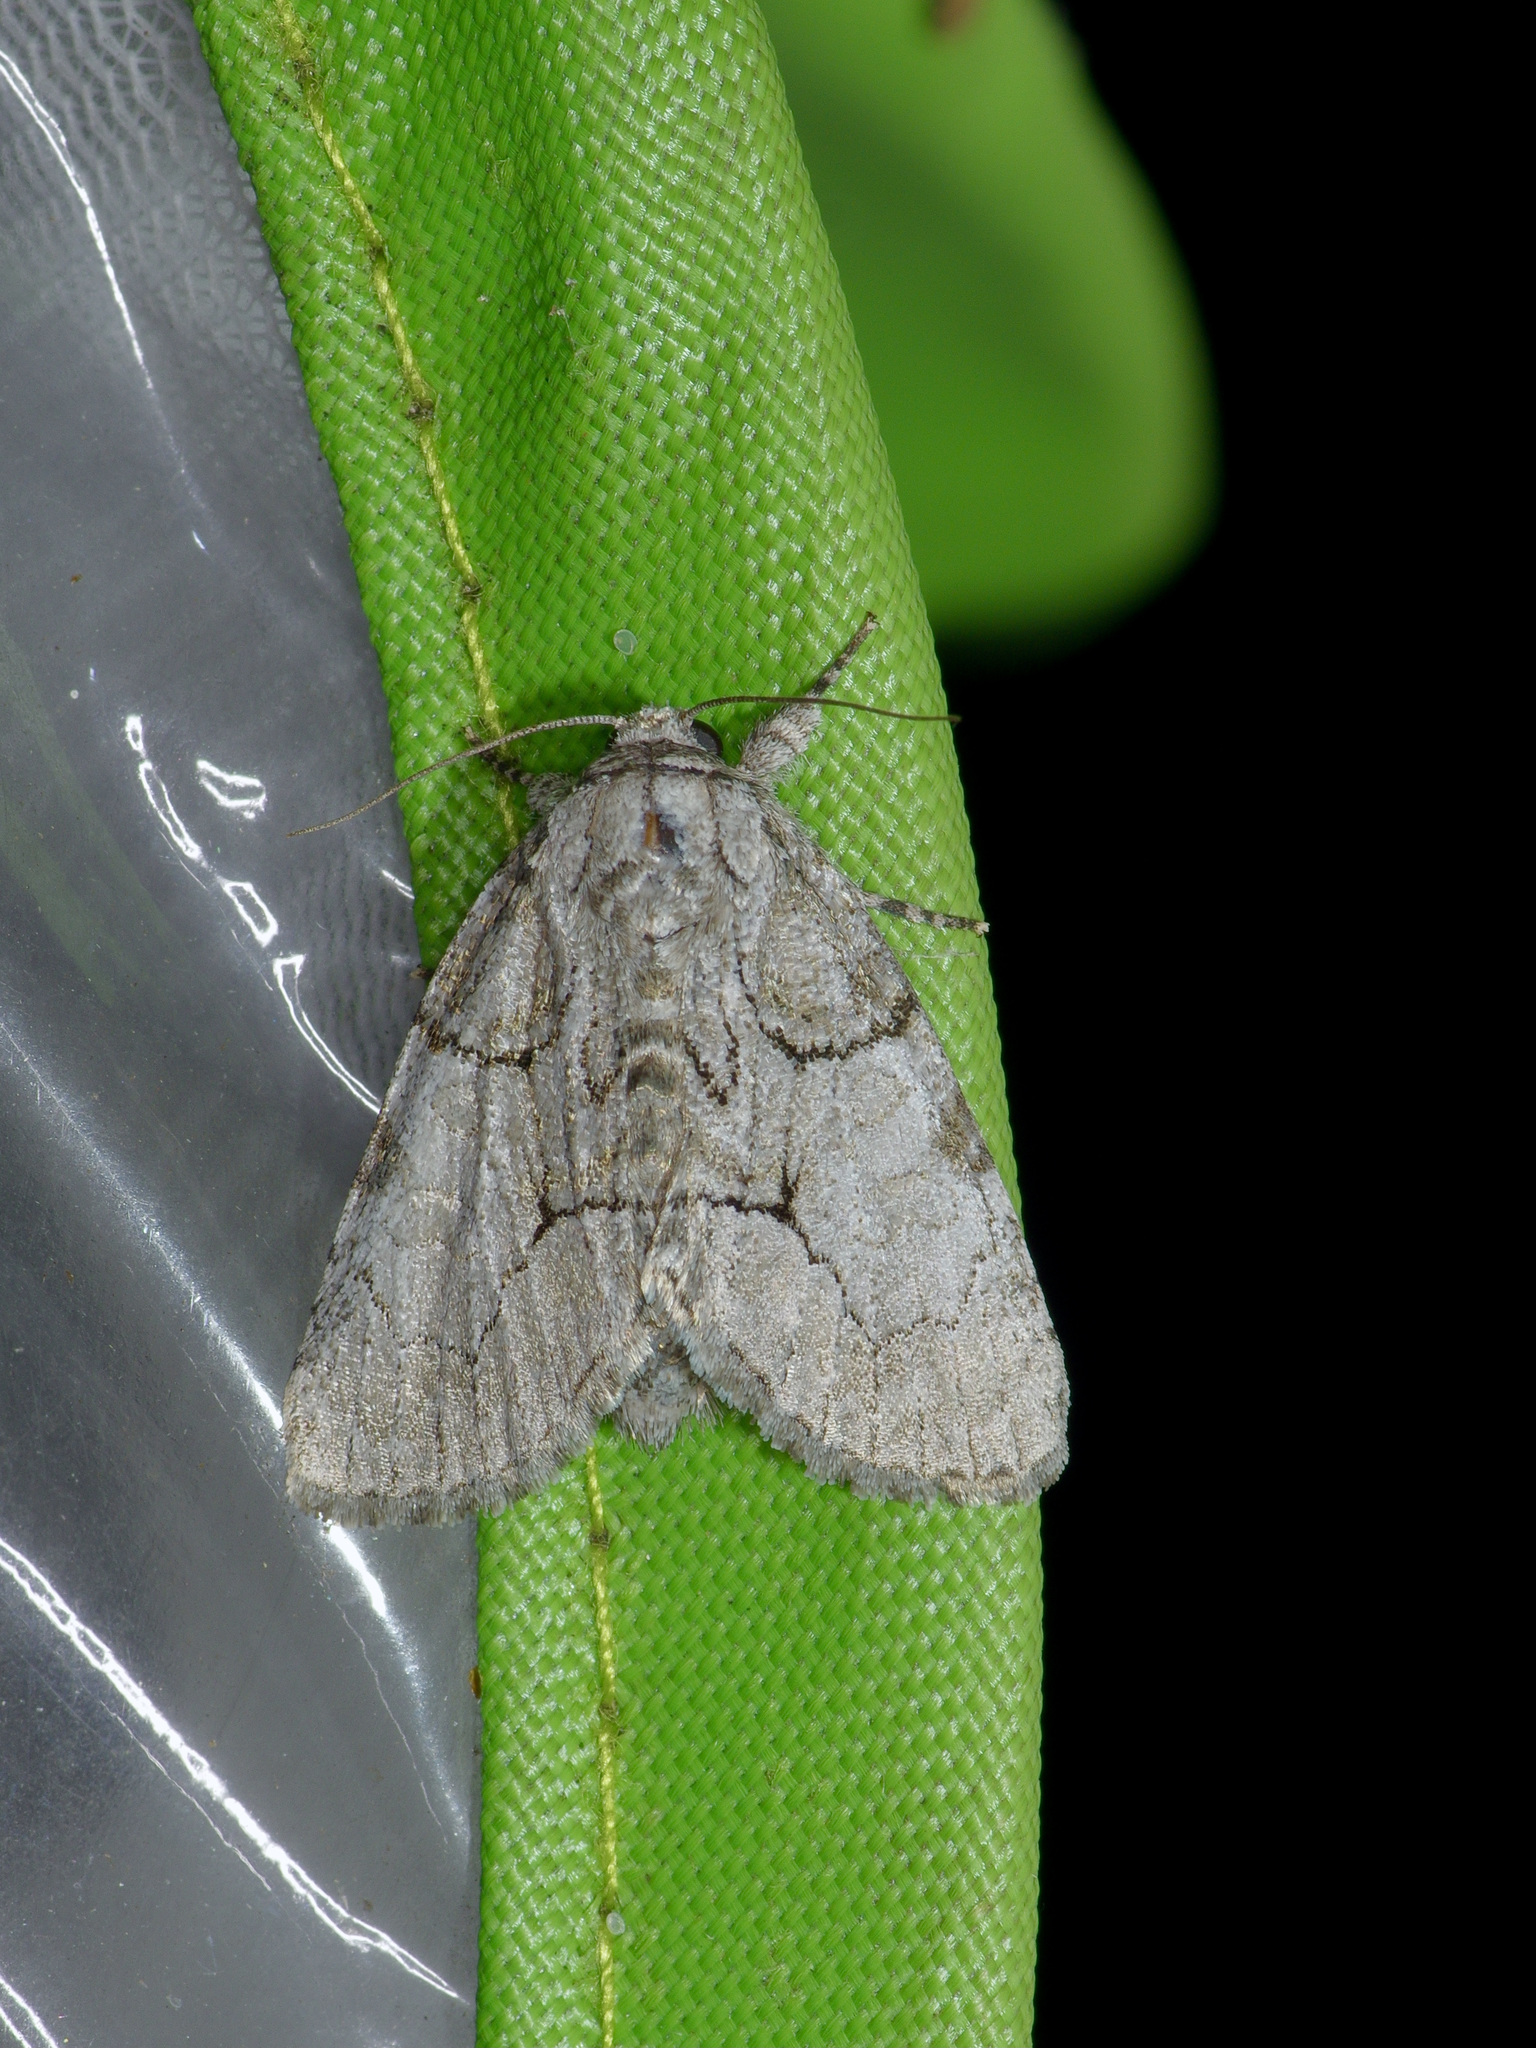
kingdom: Animalia
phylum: Arthropoda
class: Insecta
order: Lepidoptera
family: Noctuidae
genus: Raphia
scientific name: Raphia frater
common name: Brother
